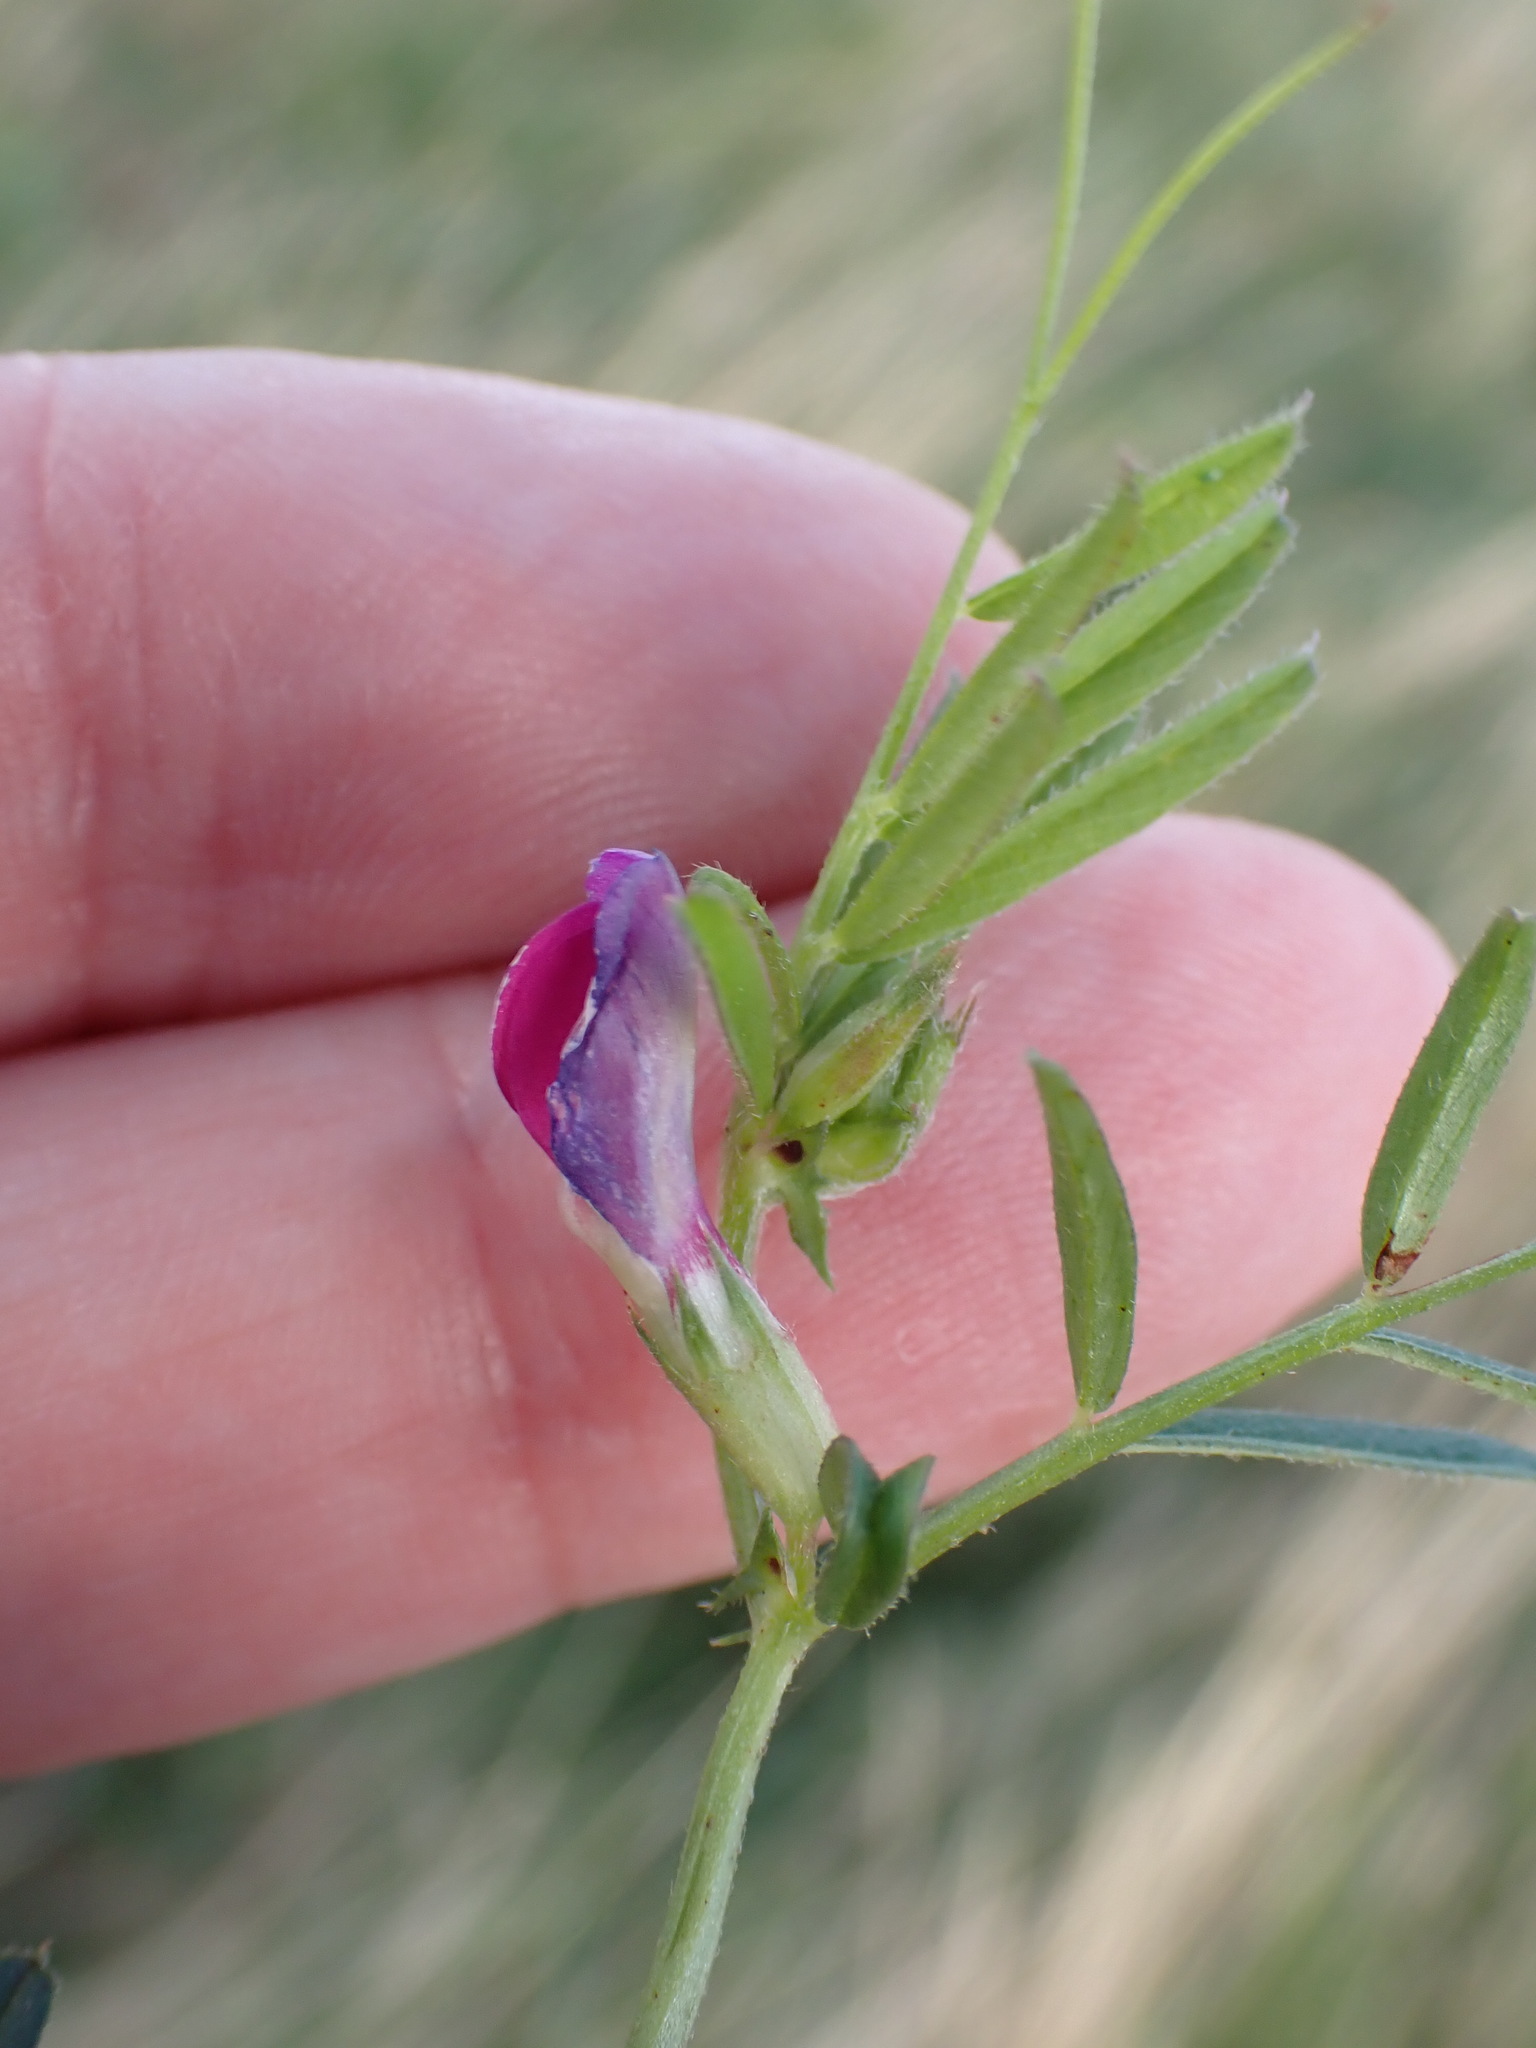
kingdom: Plantae
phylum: Tracheophyta
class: Magnoliopsida
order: Fabales
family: Fabaceae
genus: Vicia
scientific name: Vicia sativa
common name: Garden vetch
